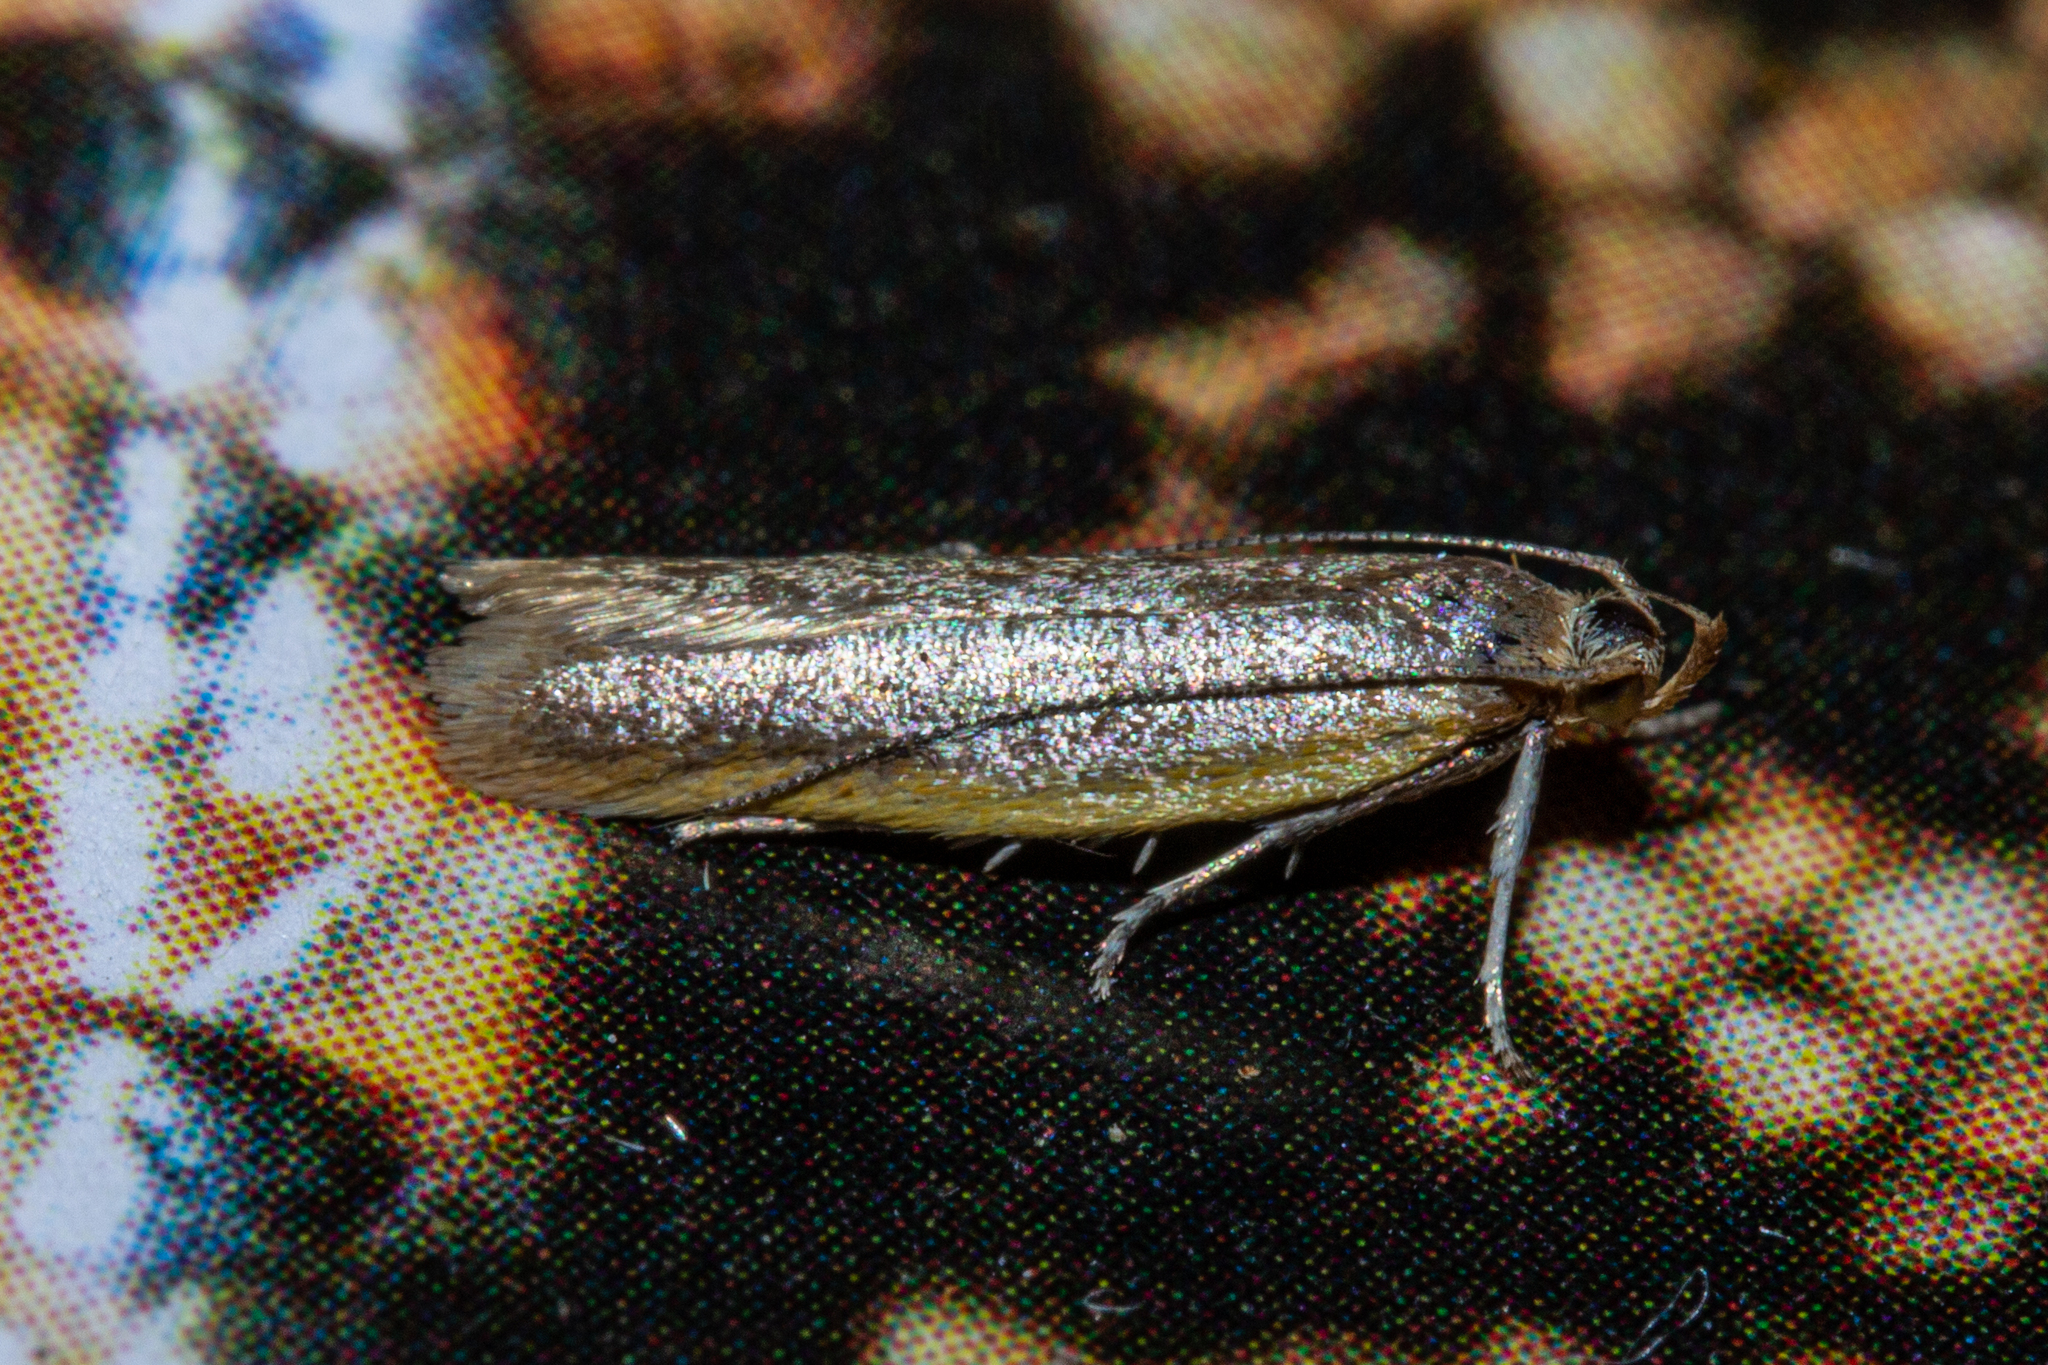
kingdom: Animalia
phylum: Arthropoda
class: Insecta
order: Lepidoptera
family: Oecophoridae
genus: Gymnobathra
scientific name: Gymnobathra parca
